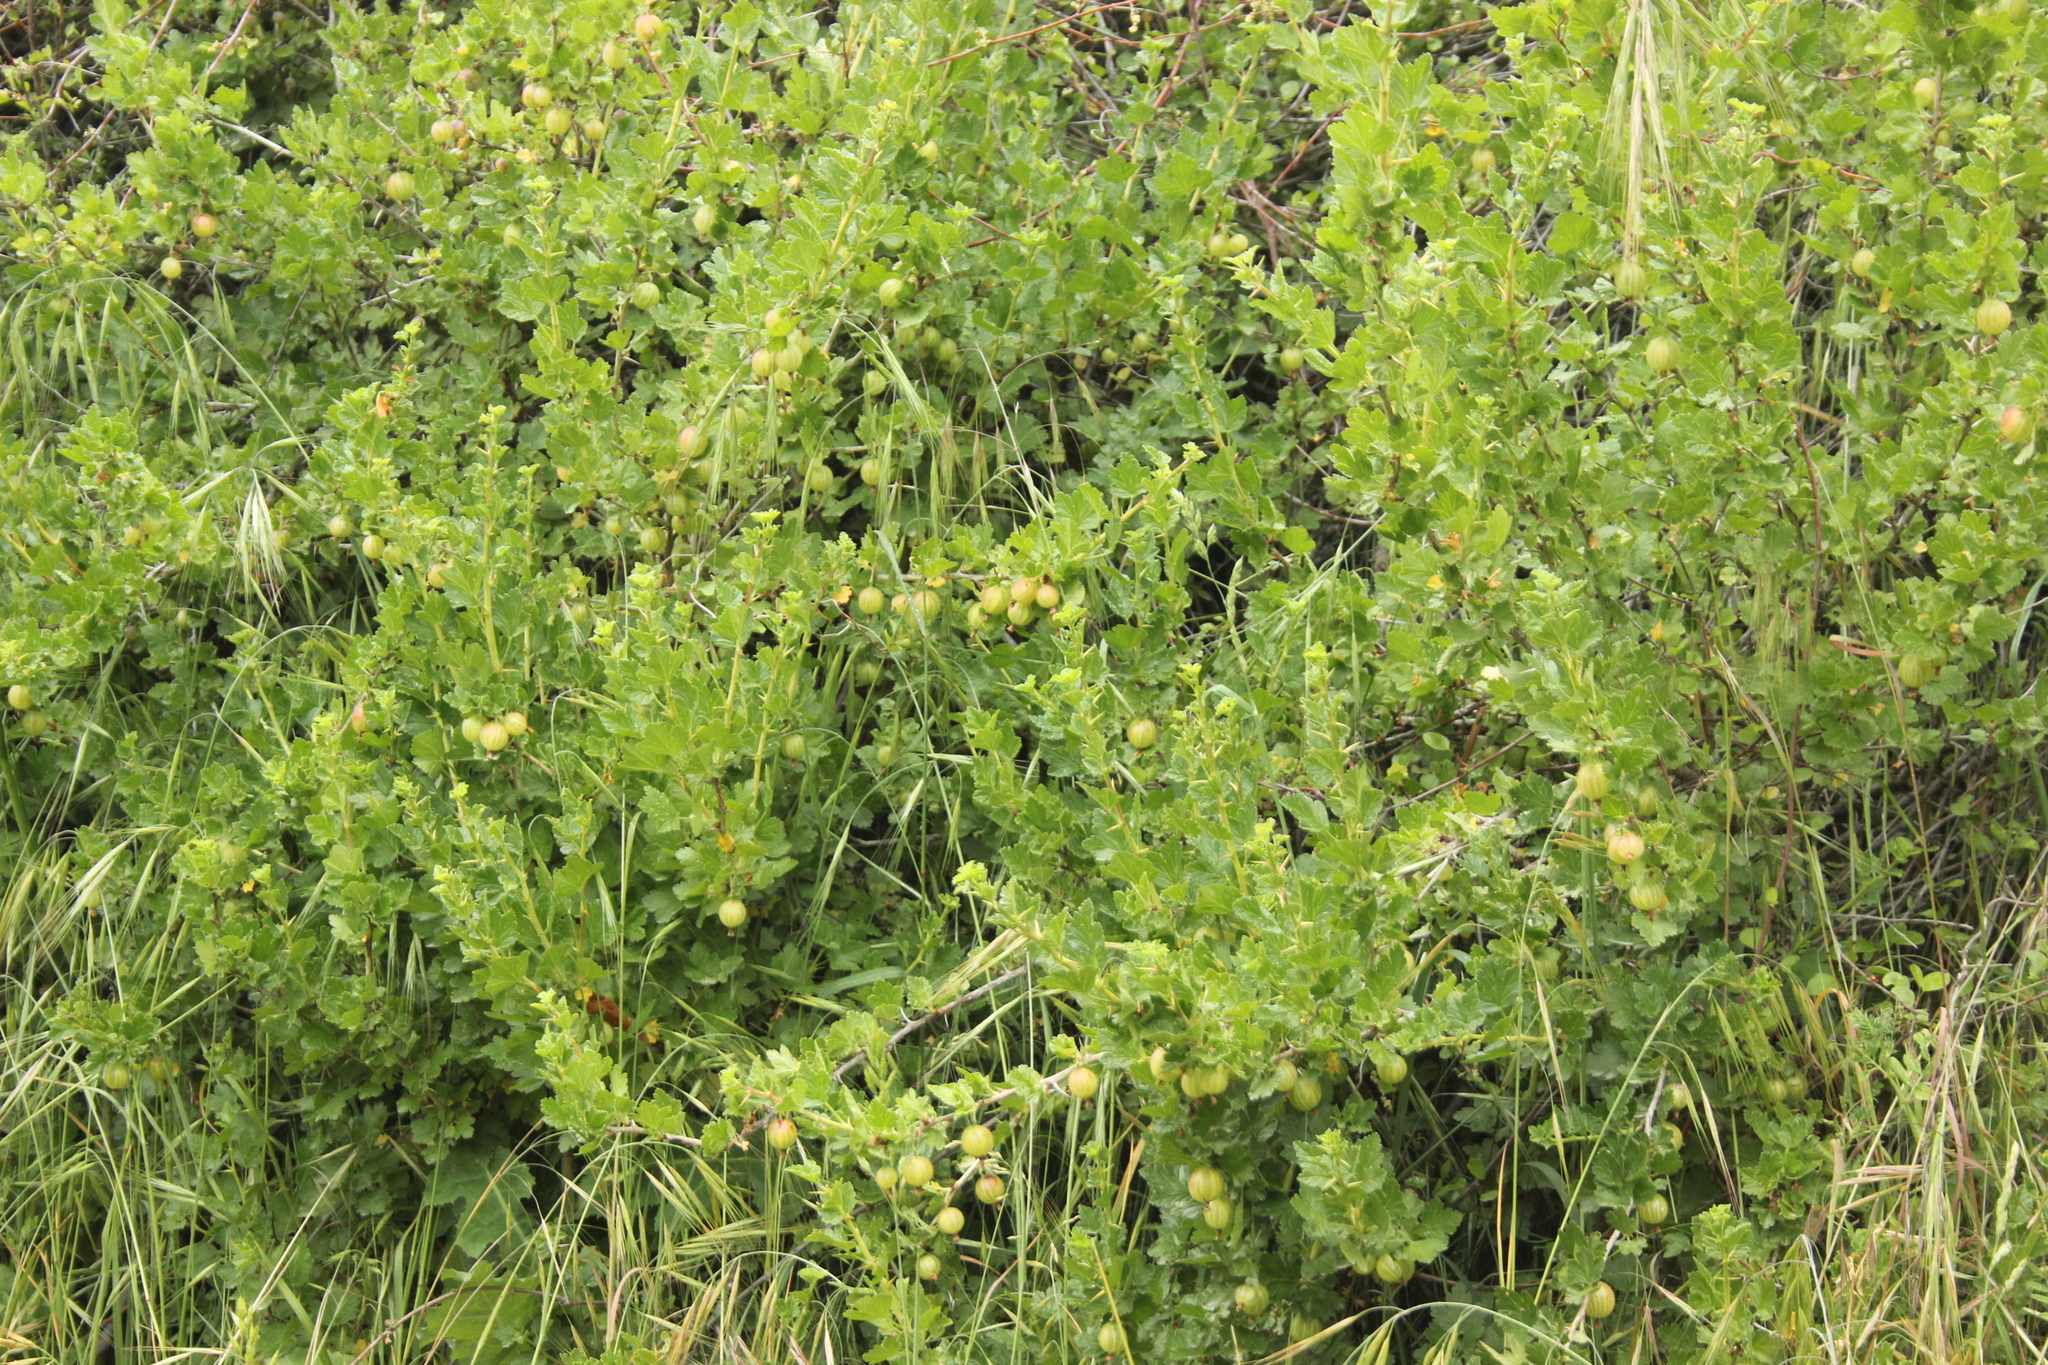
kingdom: Plantae
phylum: Tracheophyta
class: Magnoliopsida
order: Saxifragales
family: Grossulariaceae
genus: Ribes
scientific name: Ribes uva-crispa
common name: Gooseberry
